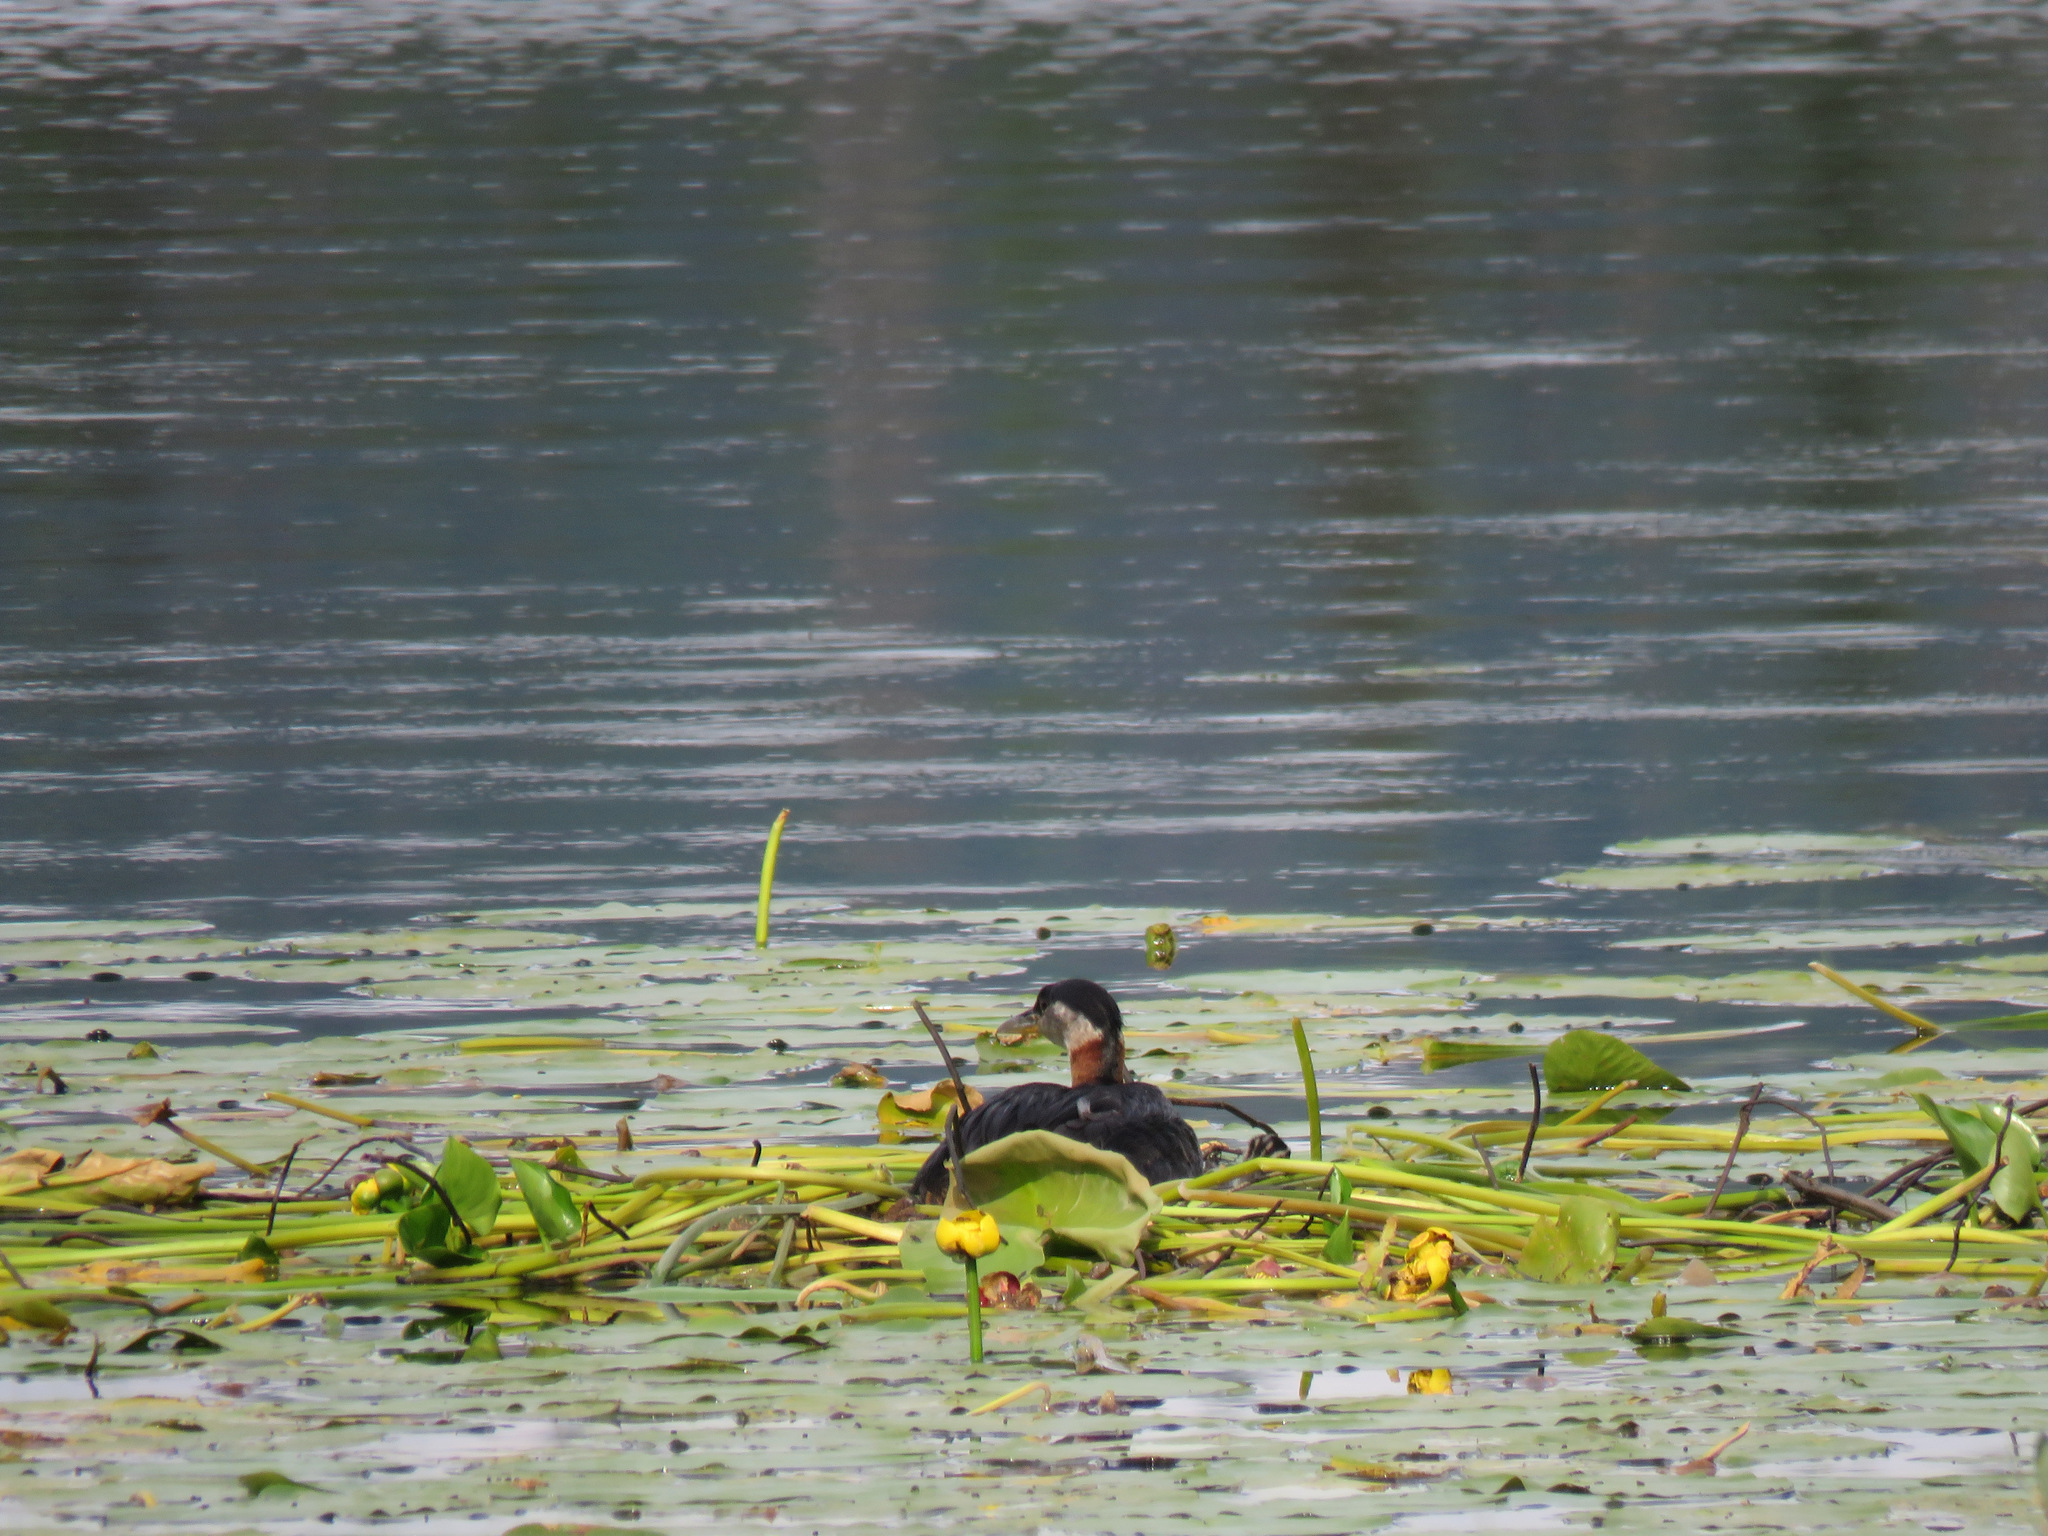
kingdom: Animalia
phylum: Chordata
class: Aves
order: Podicipediformes
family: Podicipedidae
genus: Podiceps
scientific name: Podiceps grisegena
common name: Red-necked grebe
